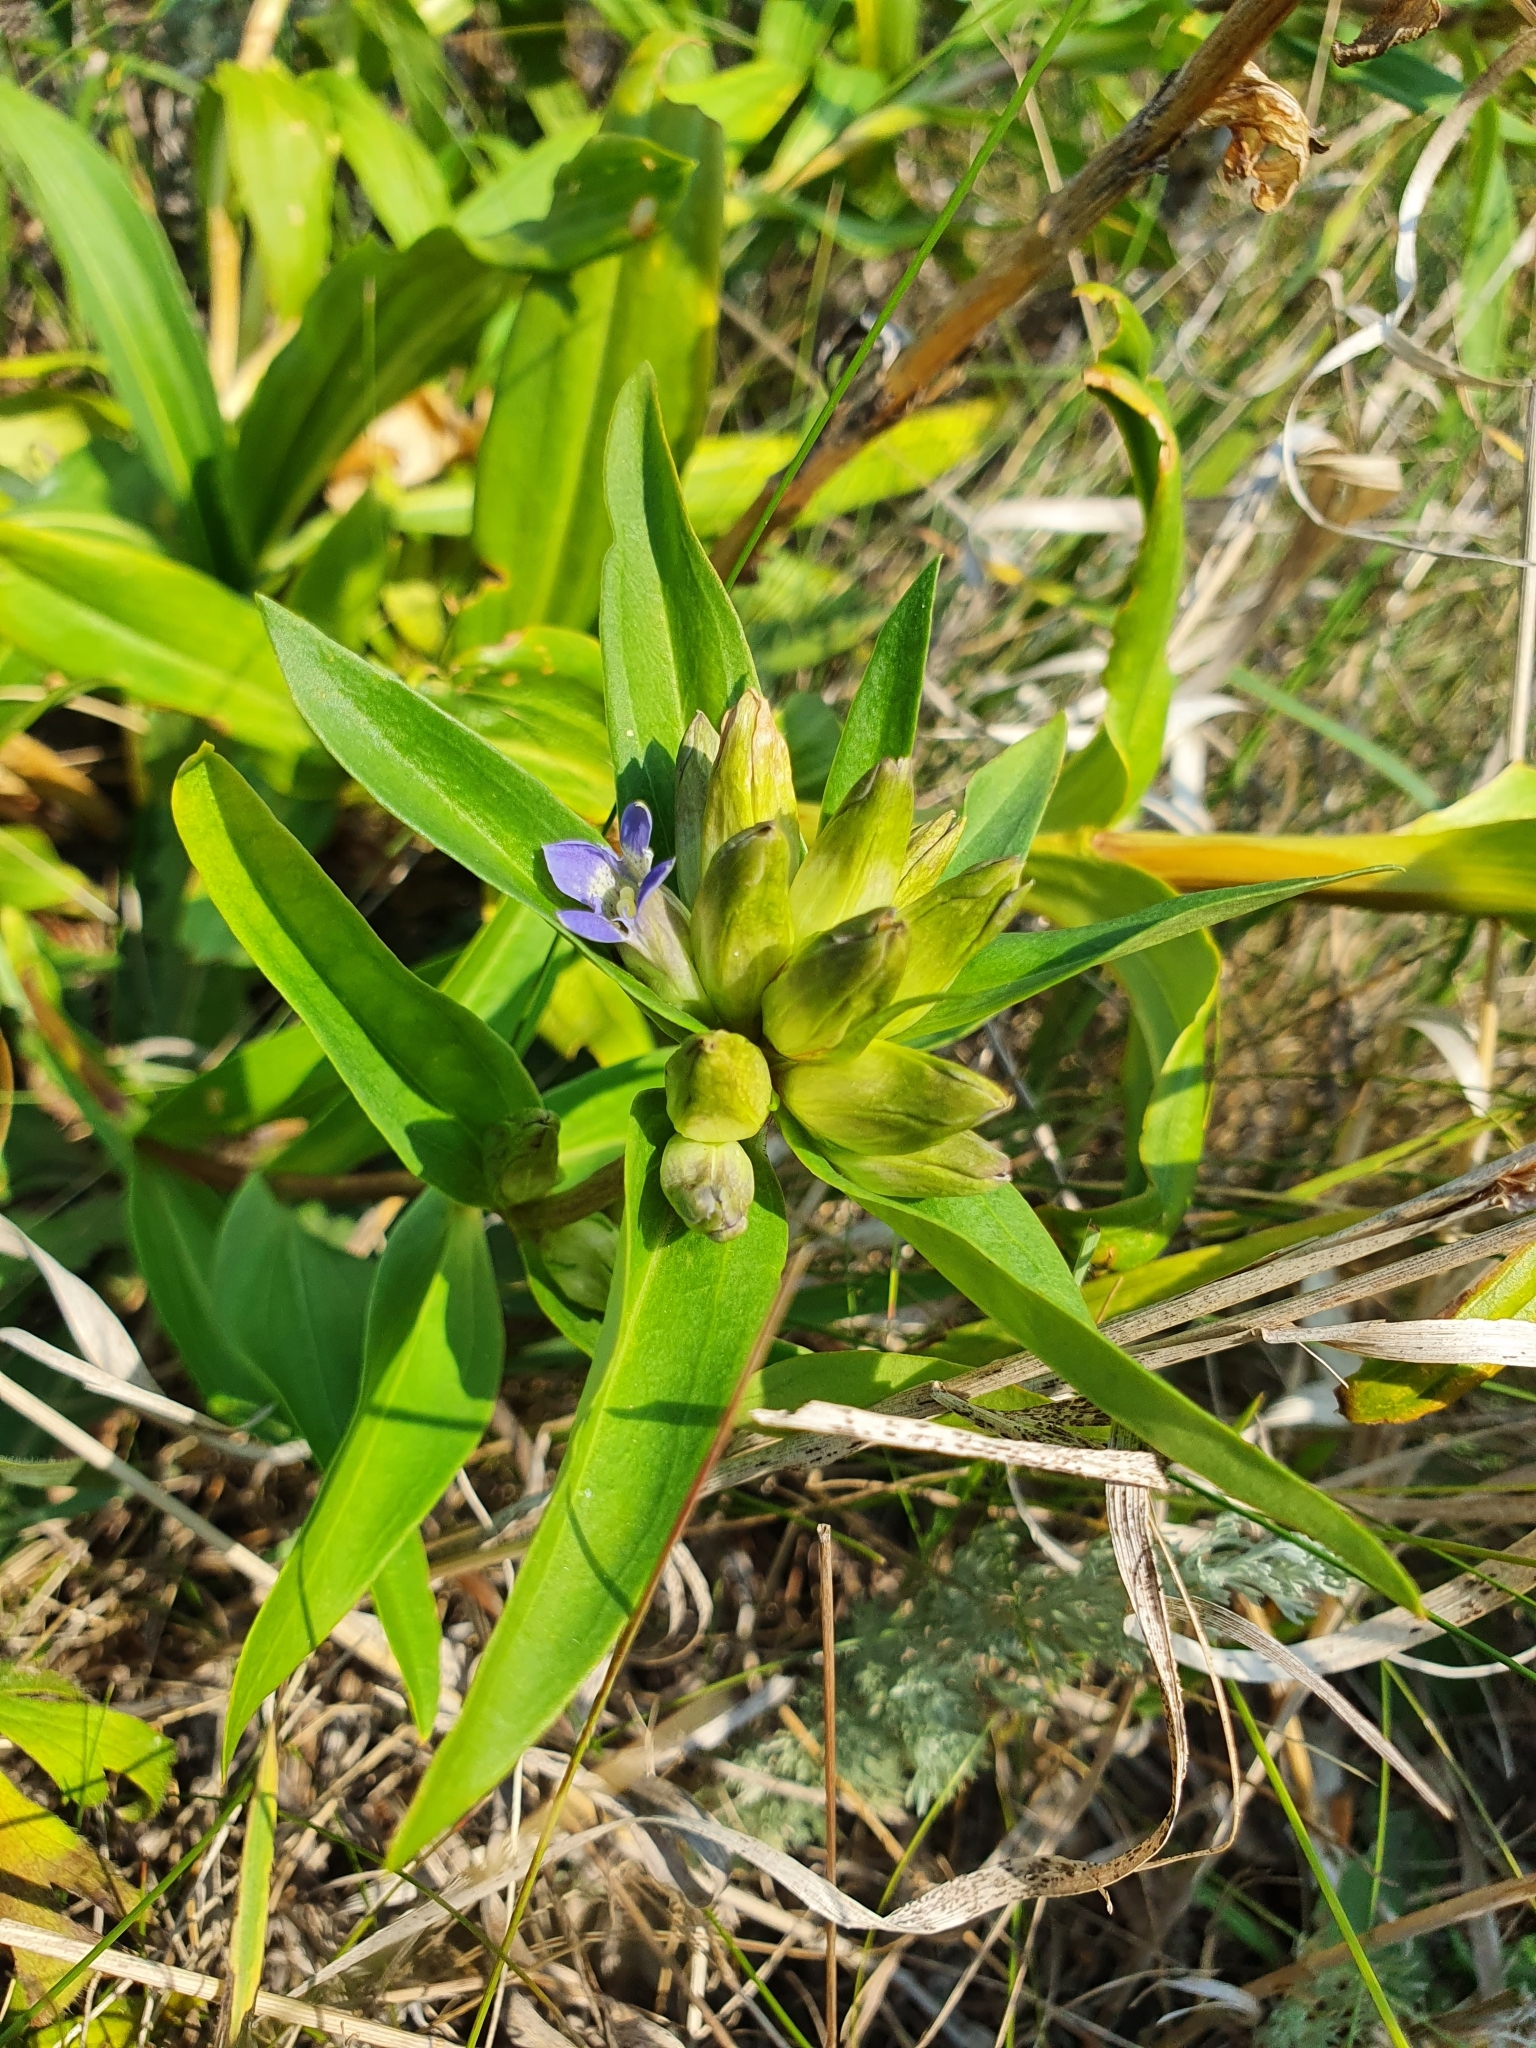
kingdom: Plantae
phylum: Tracheophyta
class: Magnoliopsida
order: Gentianales
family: Gentianaceae
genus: Gentiana
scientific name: Gentiana cruciata
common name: Cross gentian
